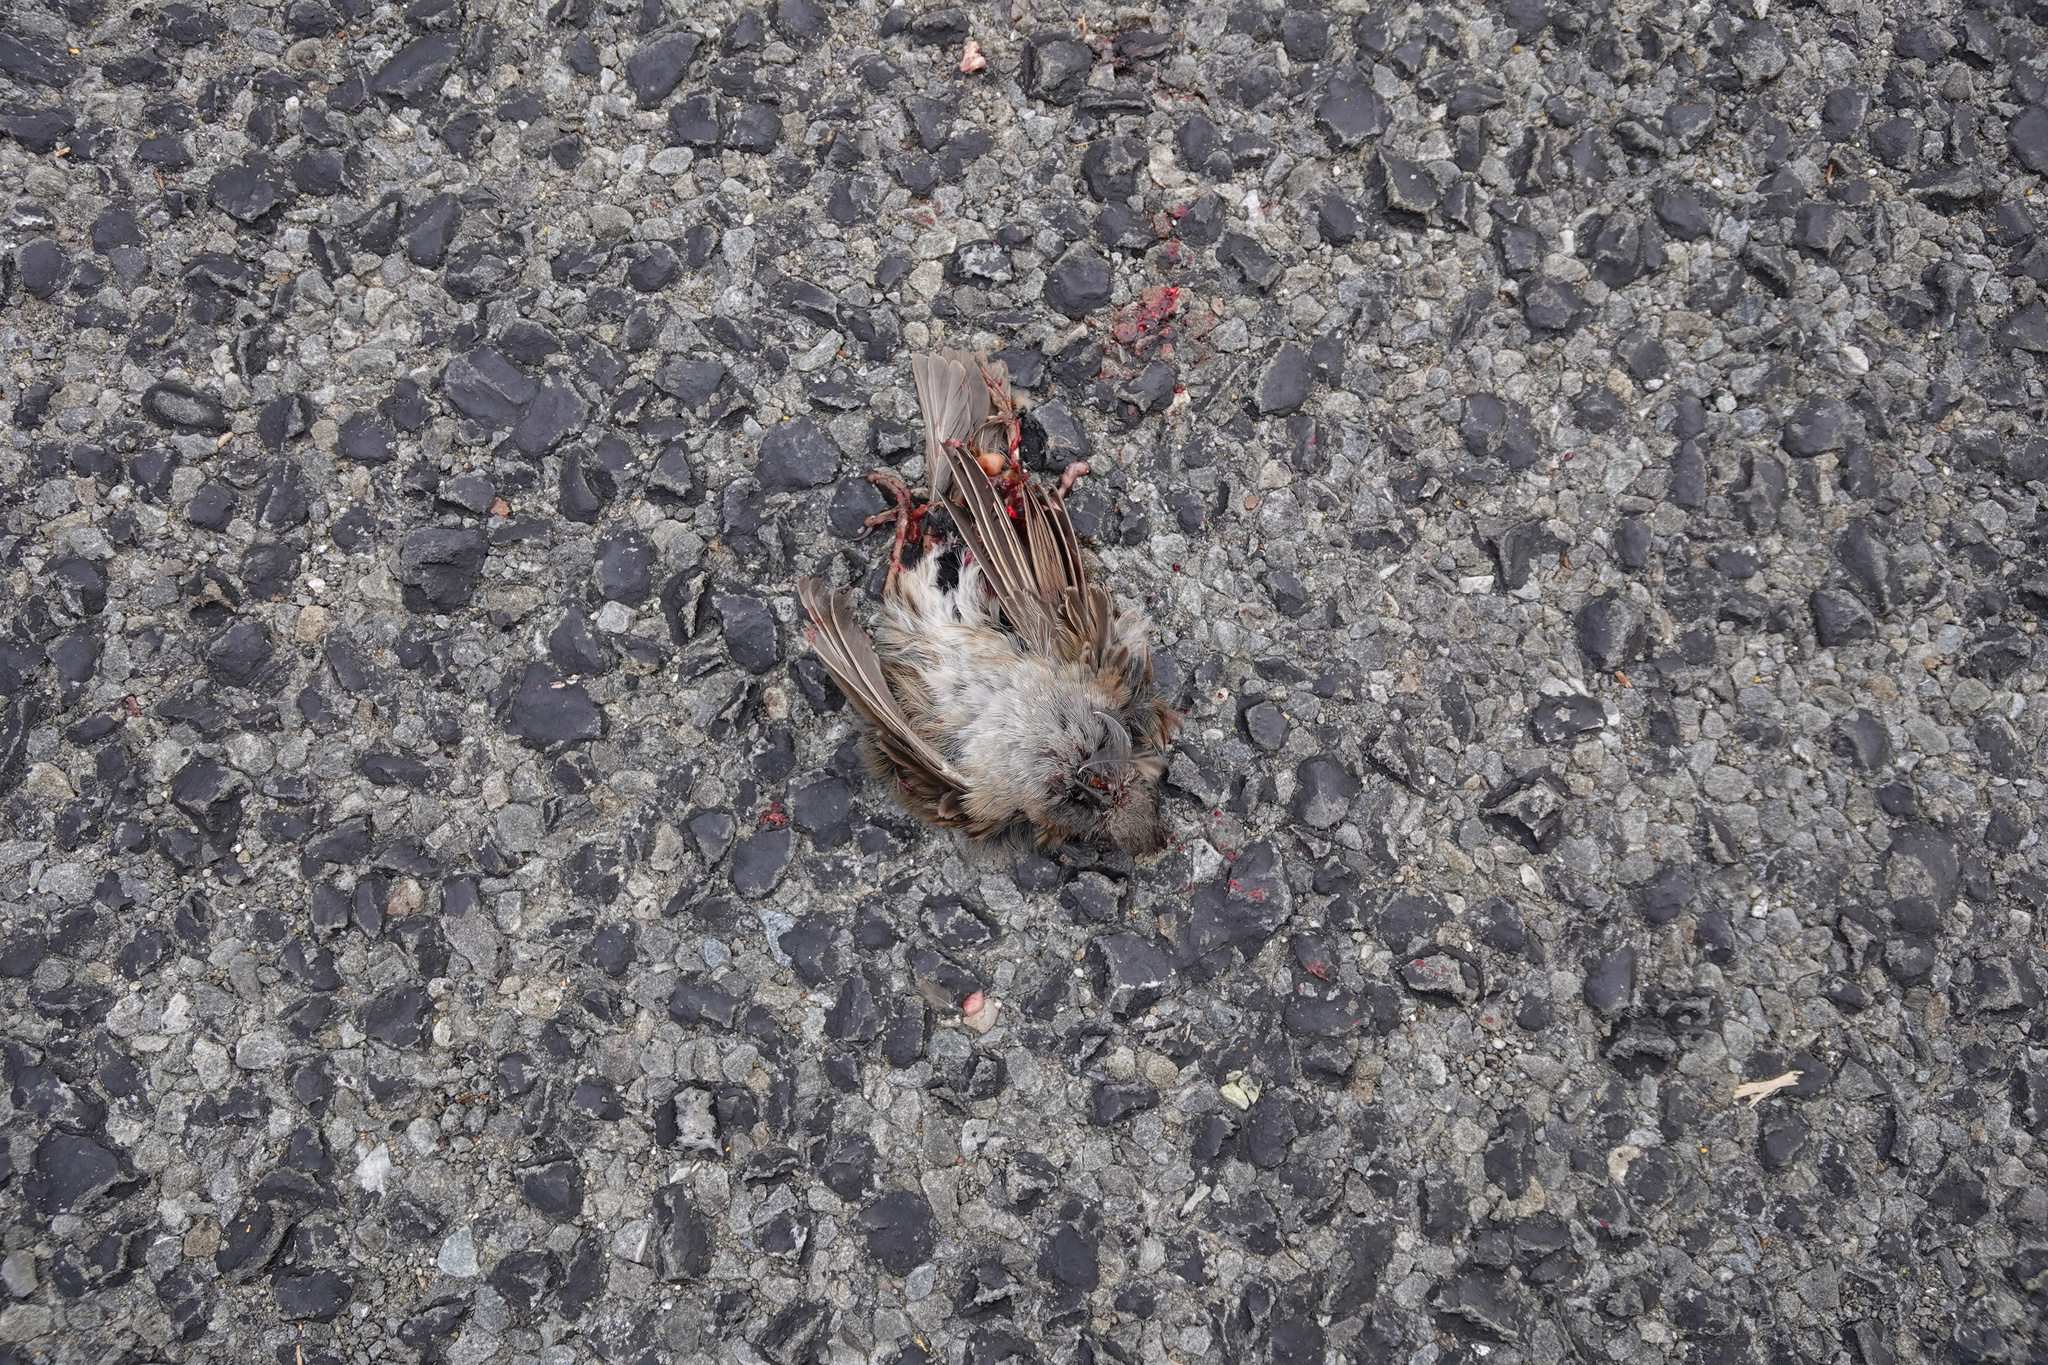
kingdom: Animalia
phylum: Chordata
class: Aves
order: Passeriformes
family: Passeridae
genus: Passer
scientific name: Passer domesticus
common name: House sparrow
